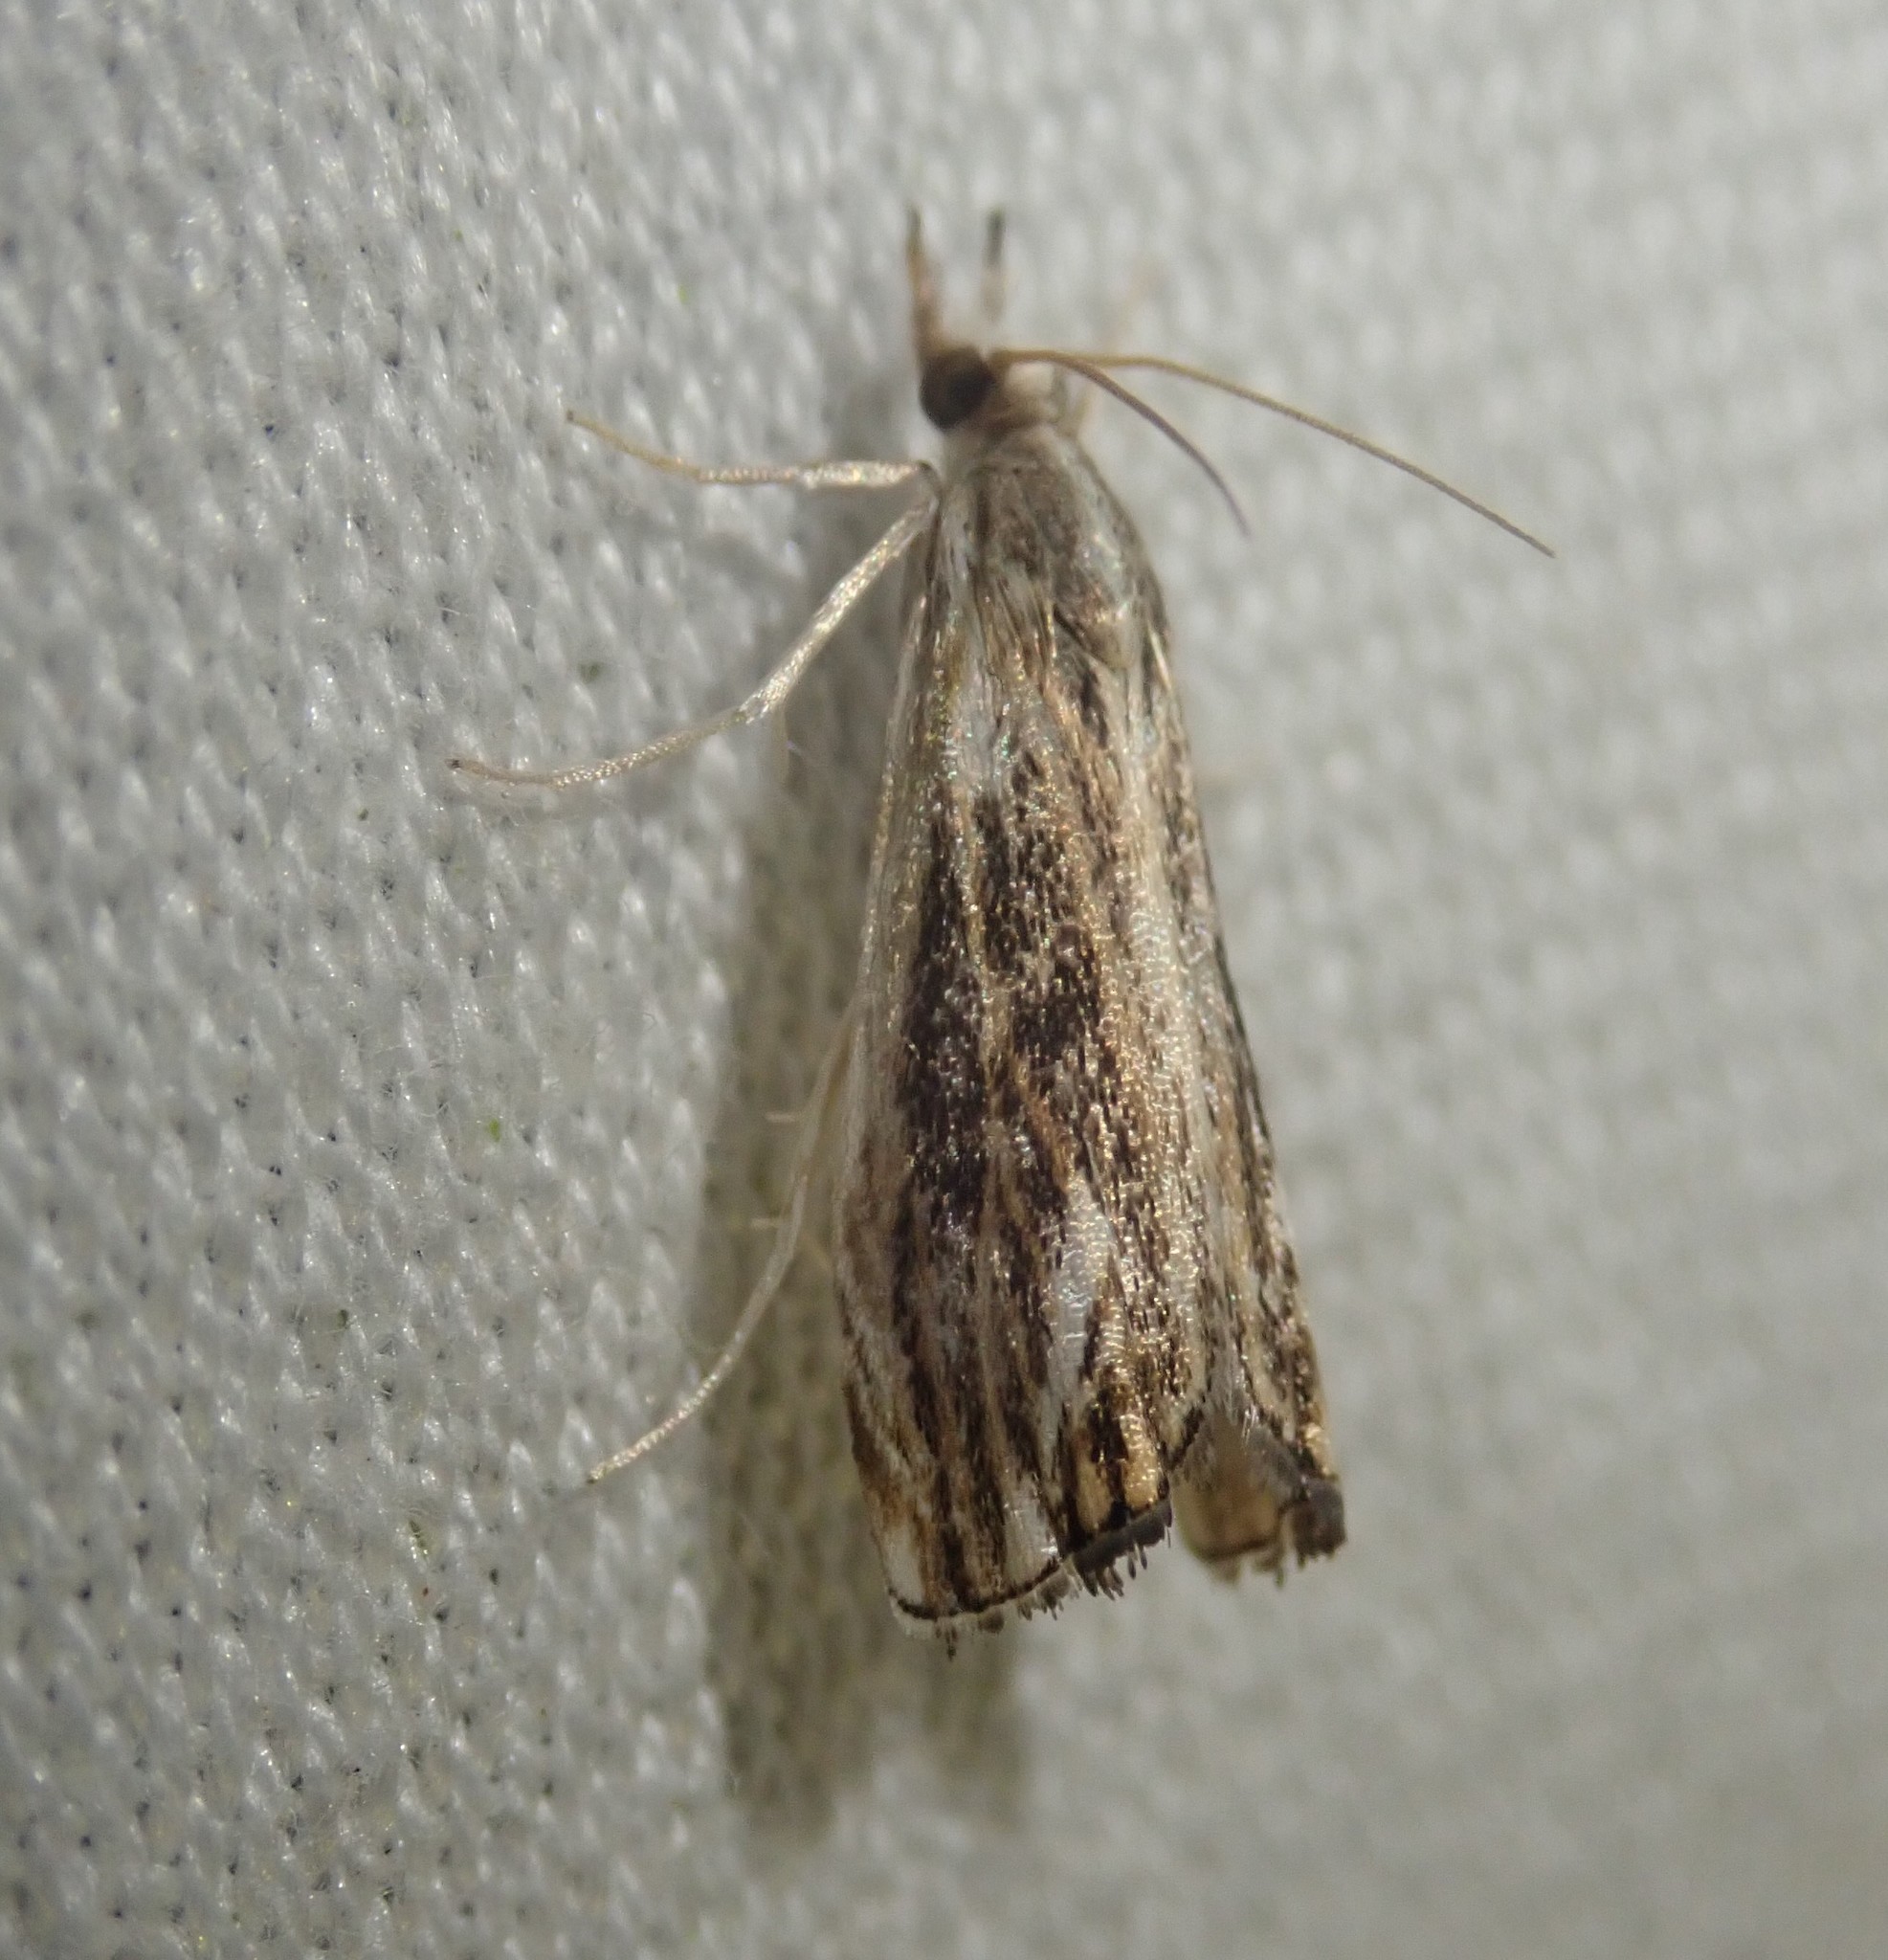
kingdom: Animalia
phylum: Arthropoda
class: Insecta
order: Lepidoptera
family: Crambidae
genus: Catoptria
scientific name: Catoptria verellus
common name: Marbled grass-veneer
